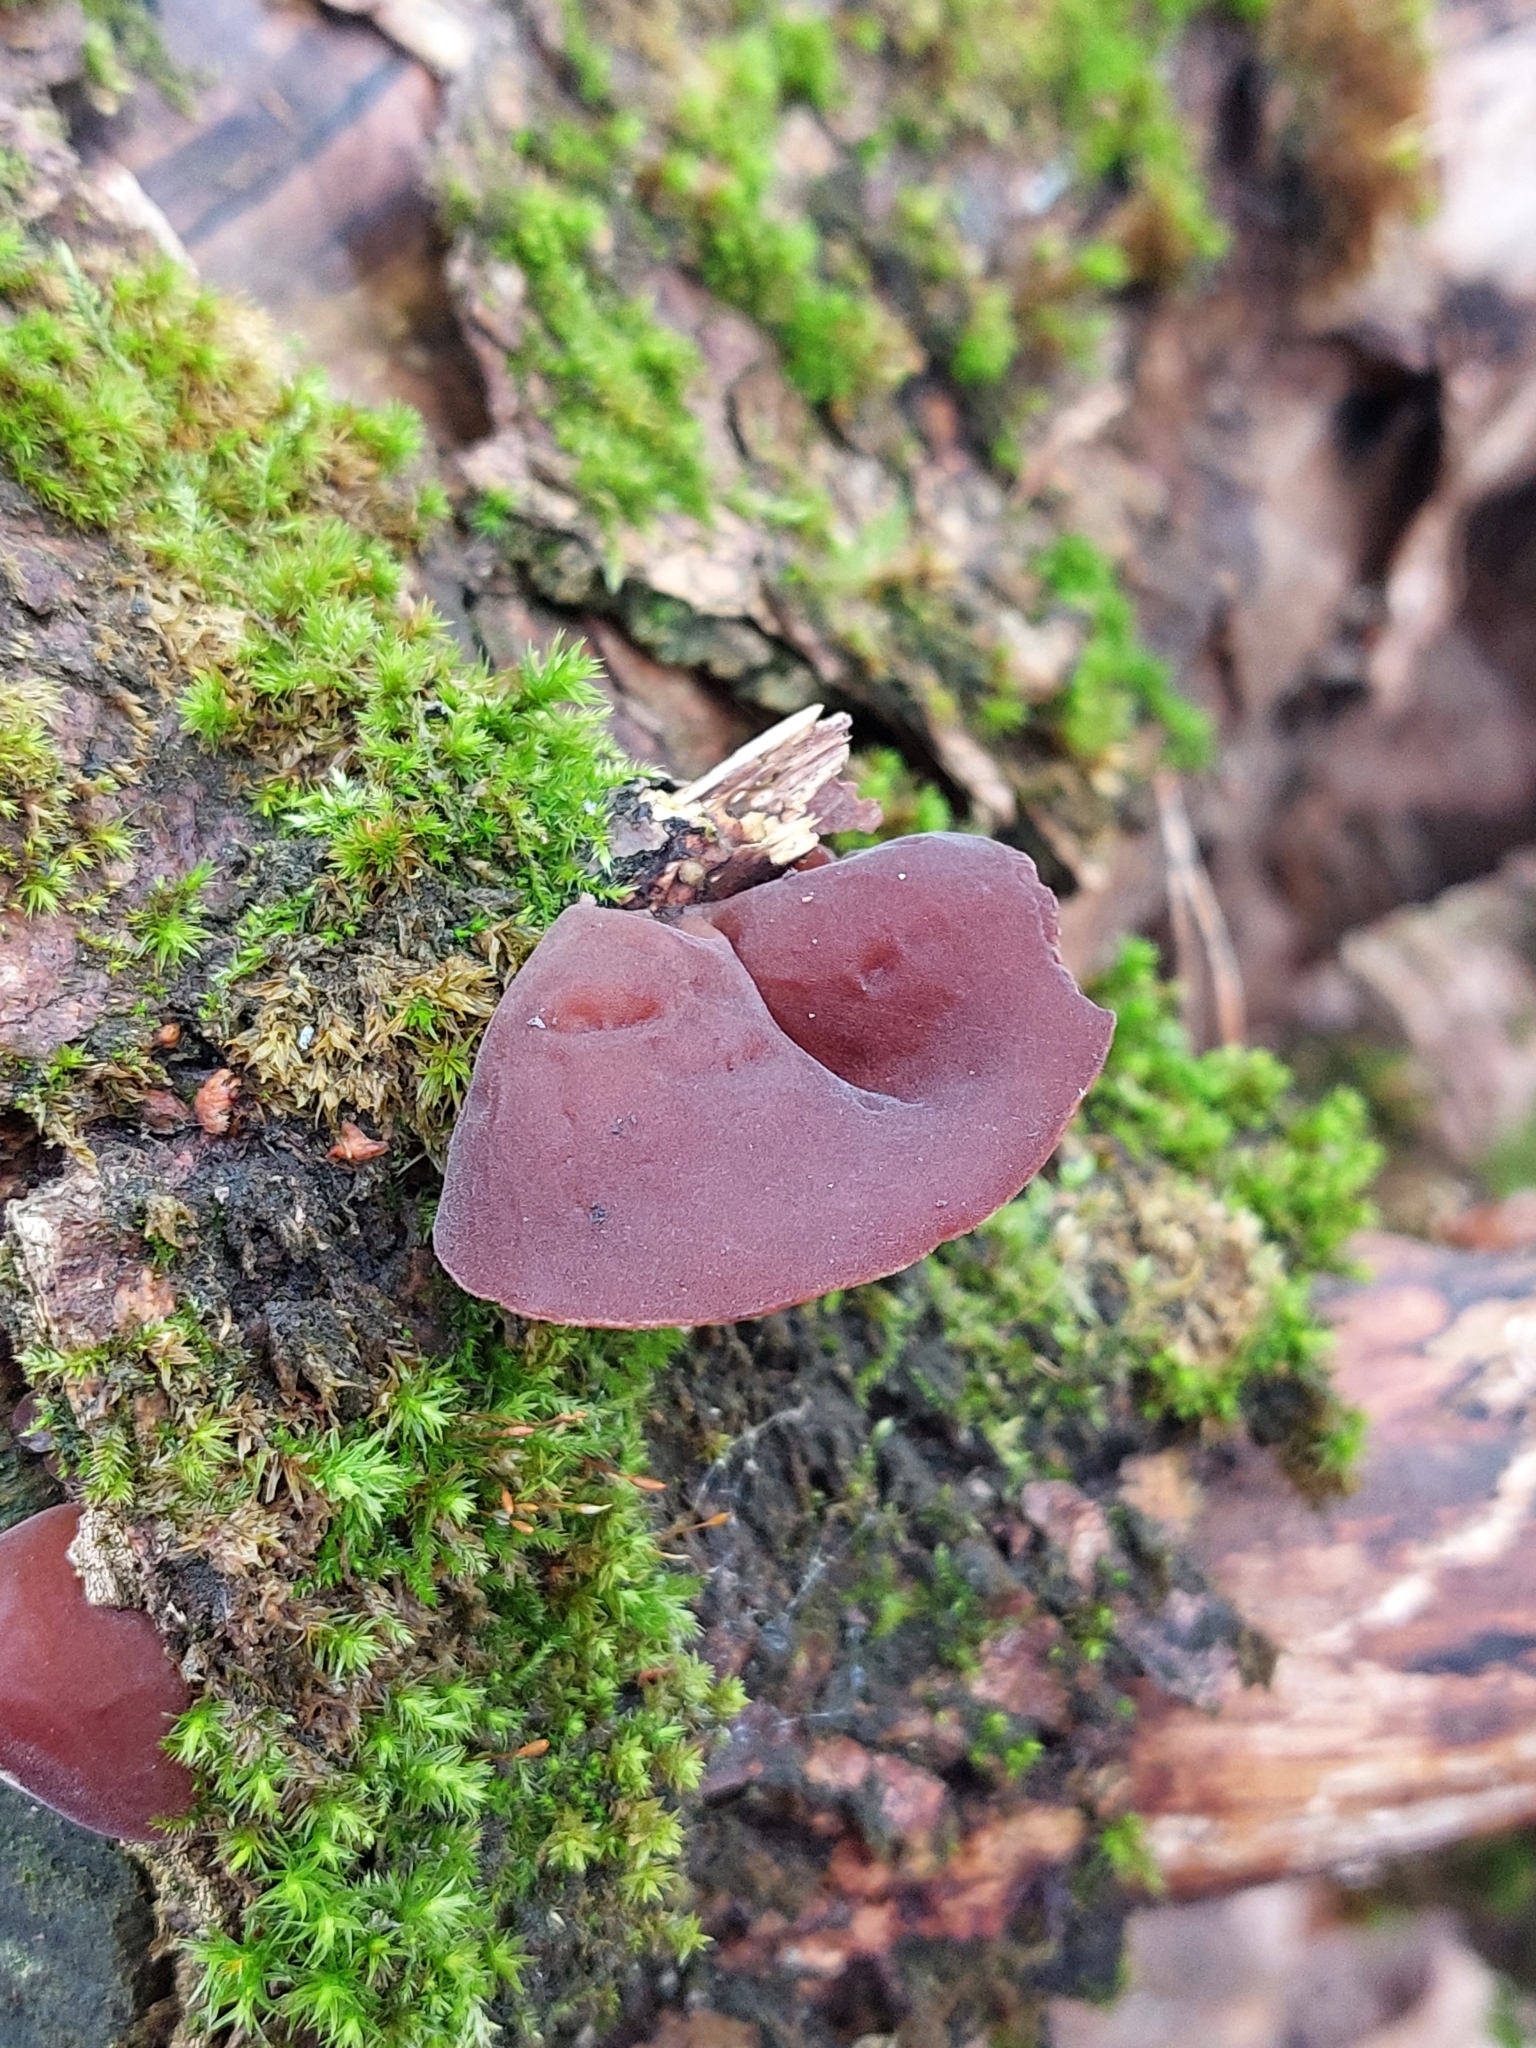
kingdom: Fungi
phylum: Basidiomycota
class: Agaricomycetes
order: Auriculariales
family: Auriculariaceae
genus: Auricularia
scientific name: Auricularia auricula-judae
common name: Jelly ear
